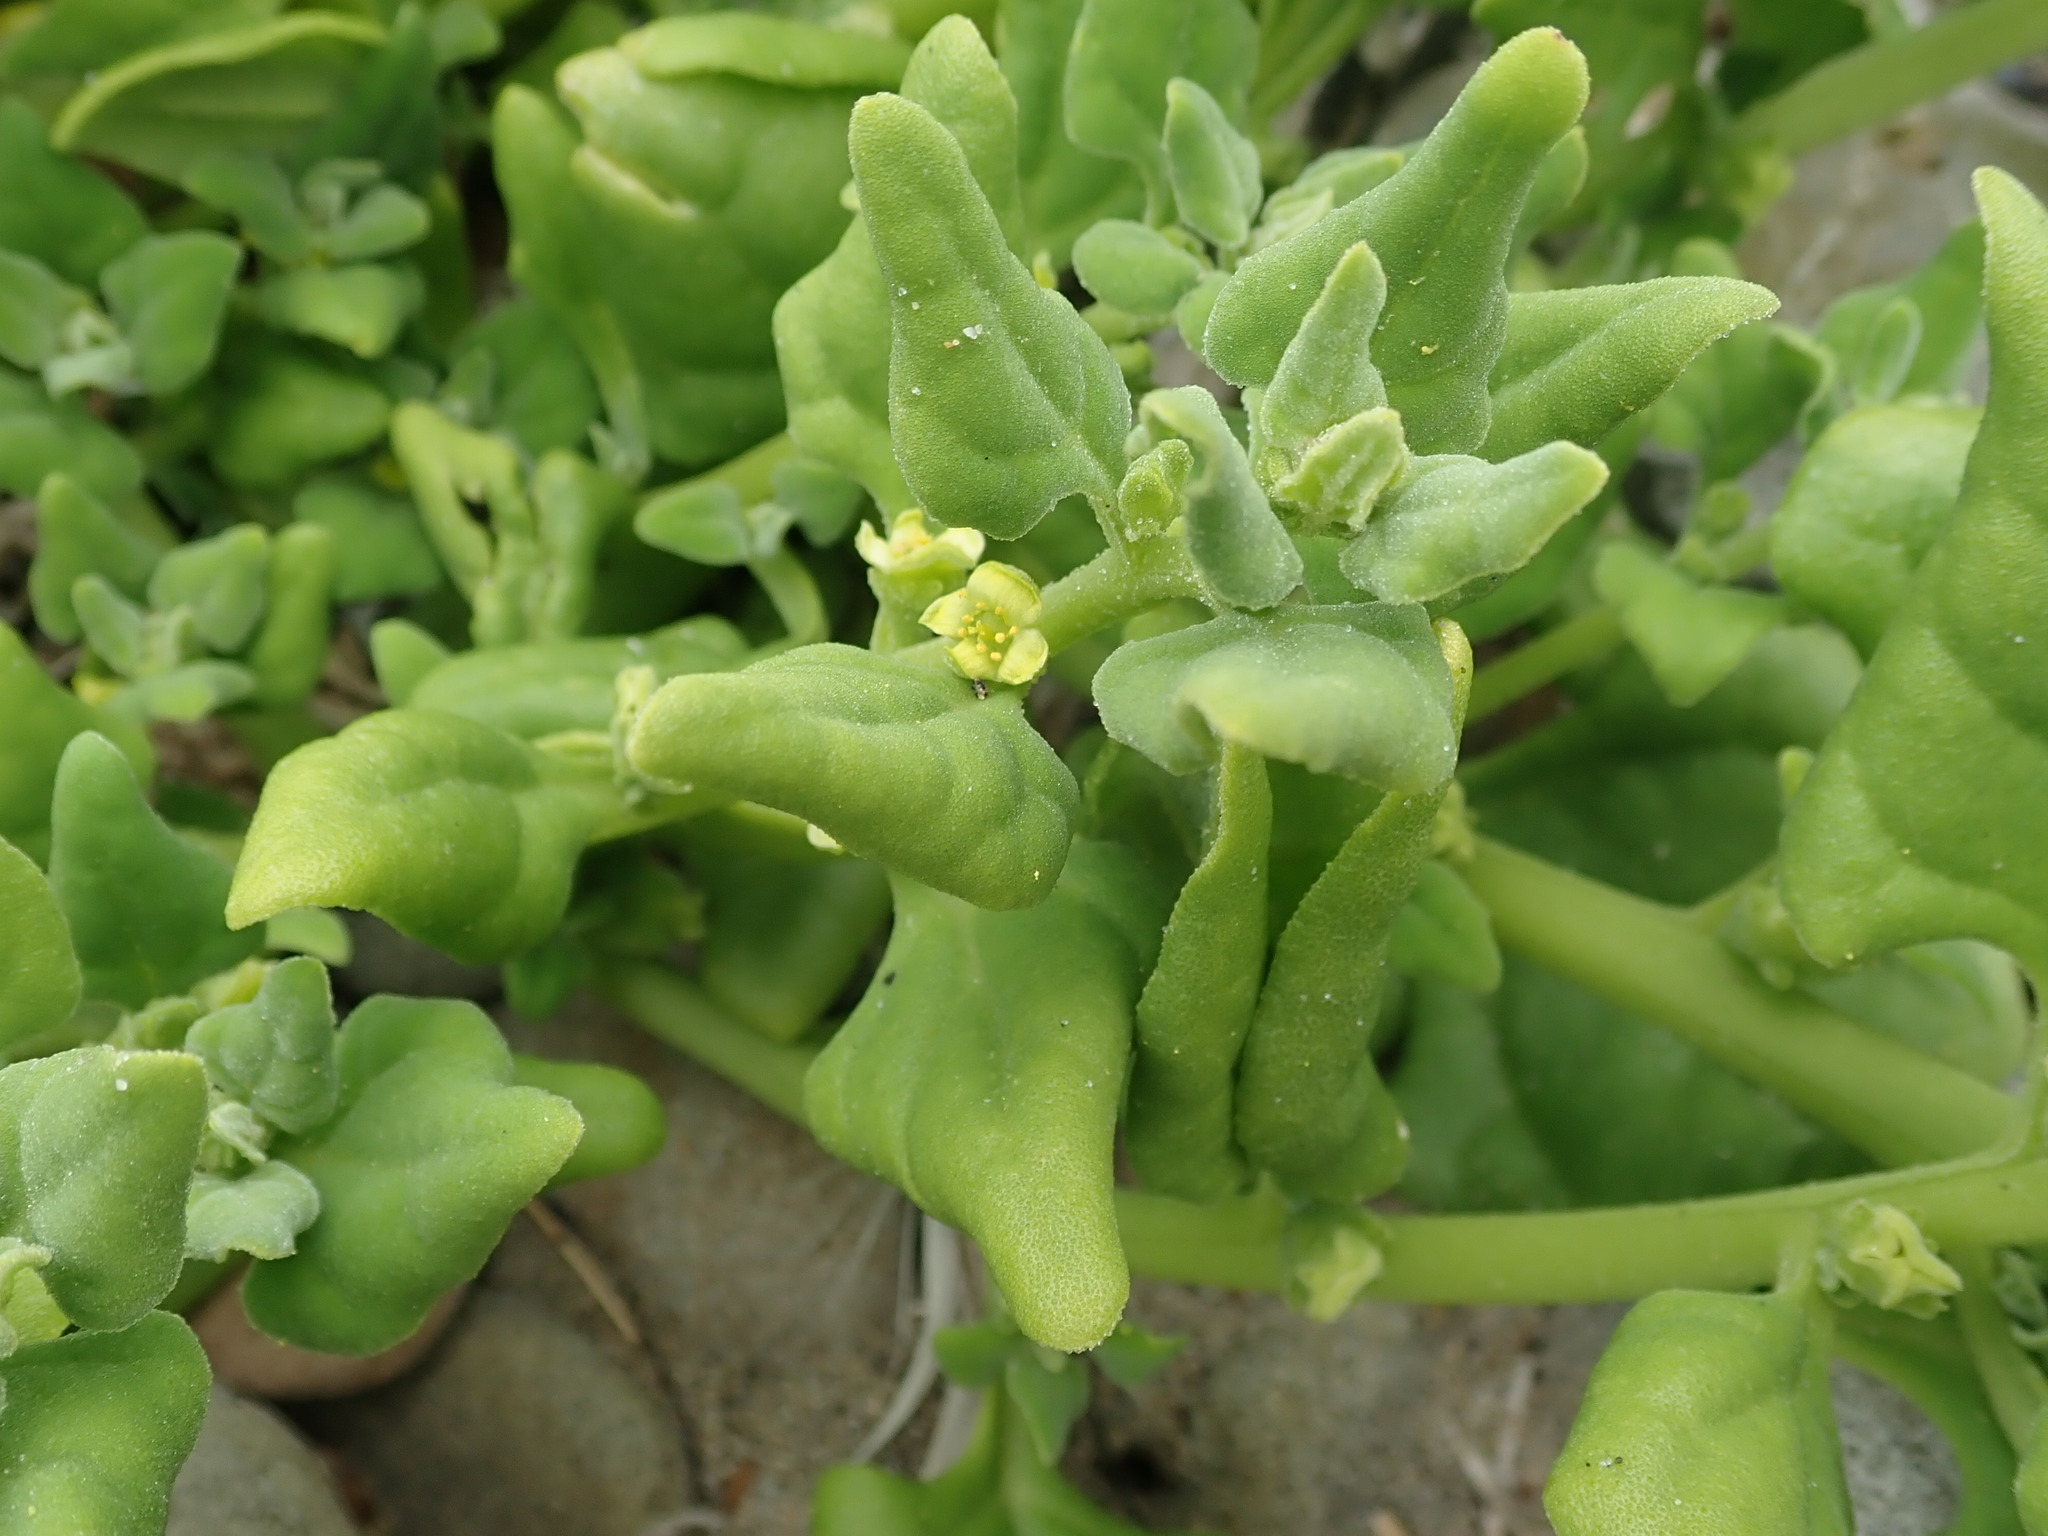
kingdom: Plantae
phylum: Tracheophyta
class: Magnoliopsida
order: Caryophyllales
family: Aizoaceae
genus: Tetragonia
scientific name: Tetragonia tetragonoides
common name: New zealand-spinach
